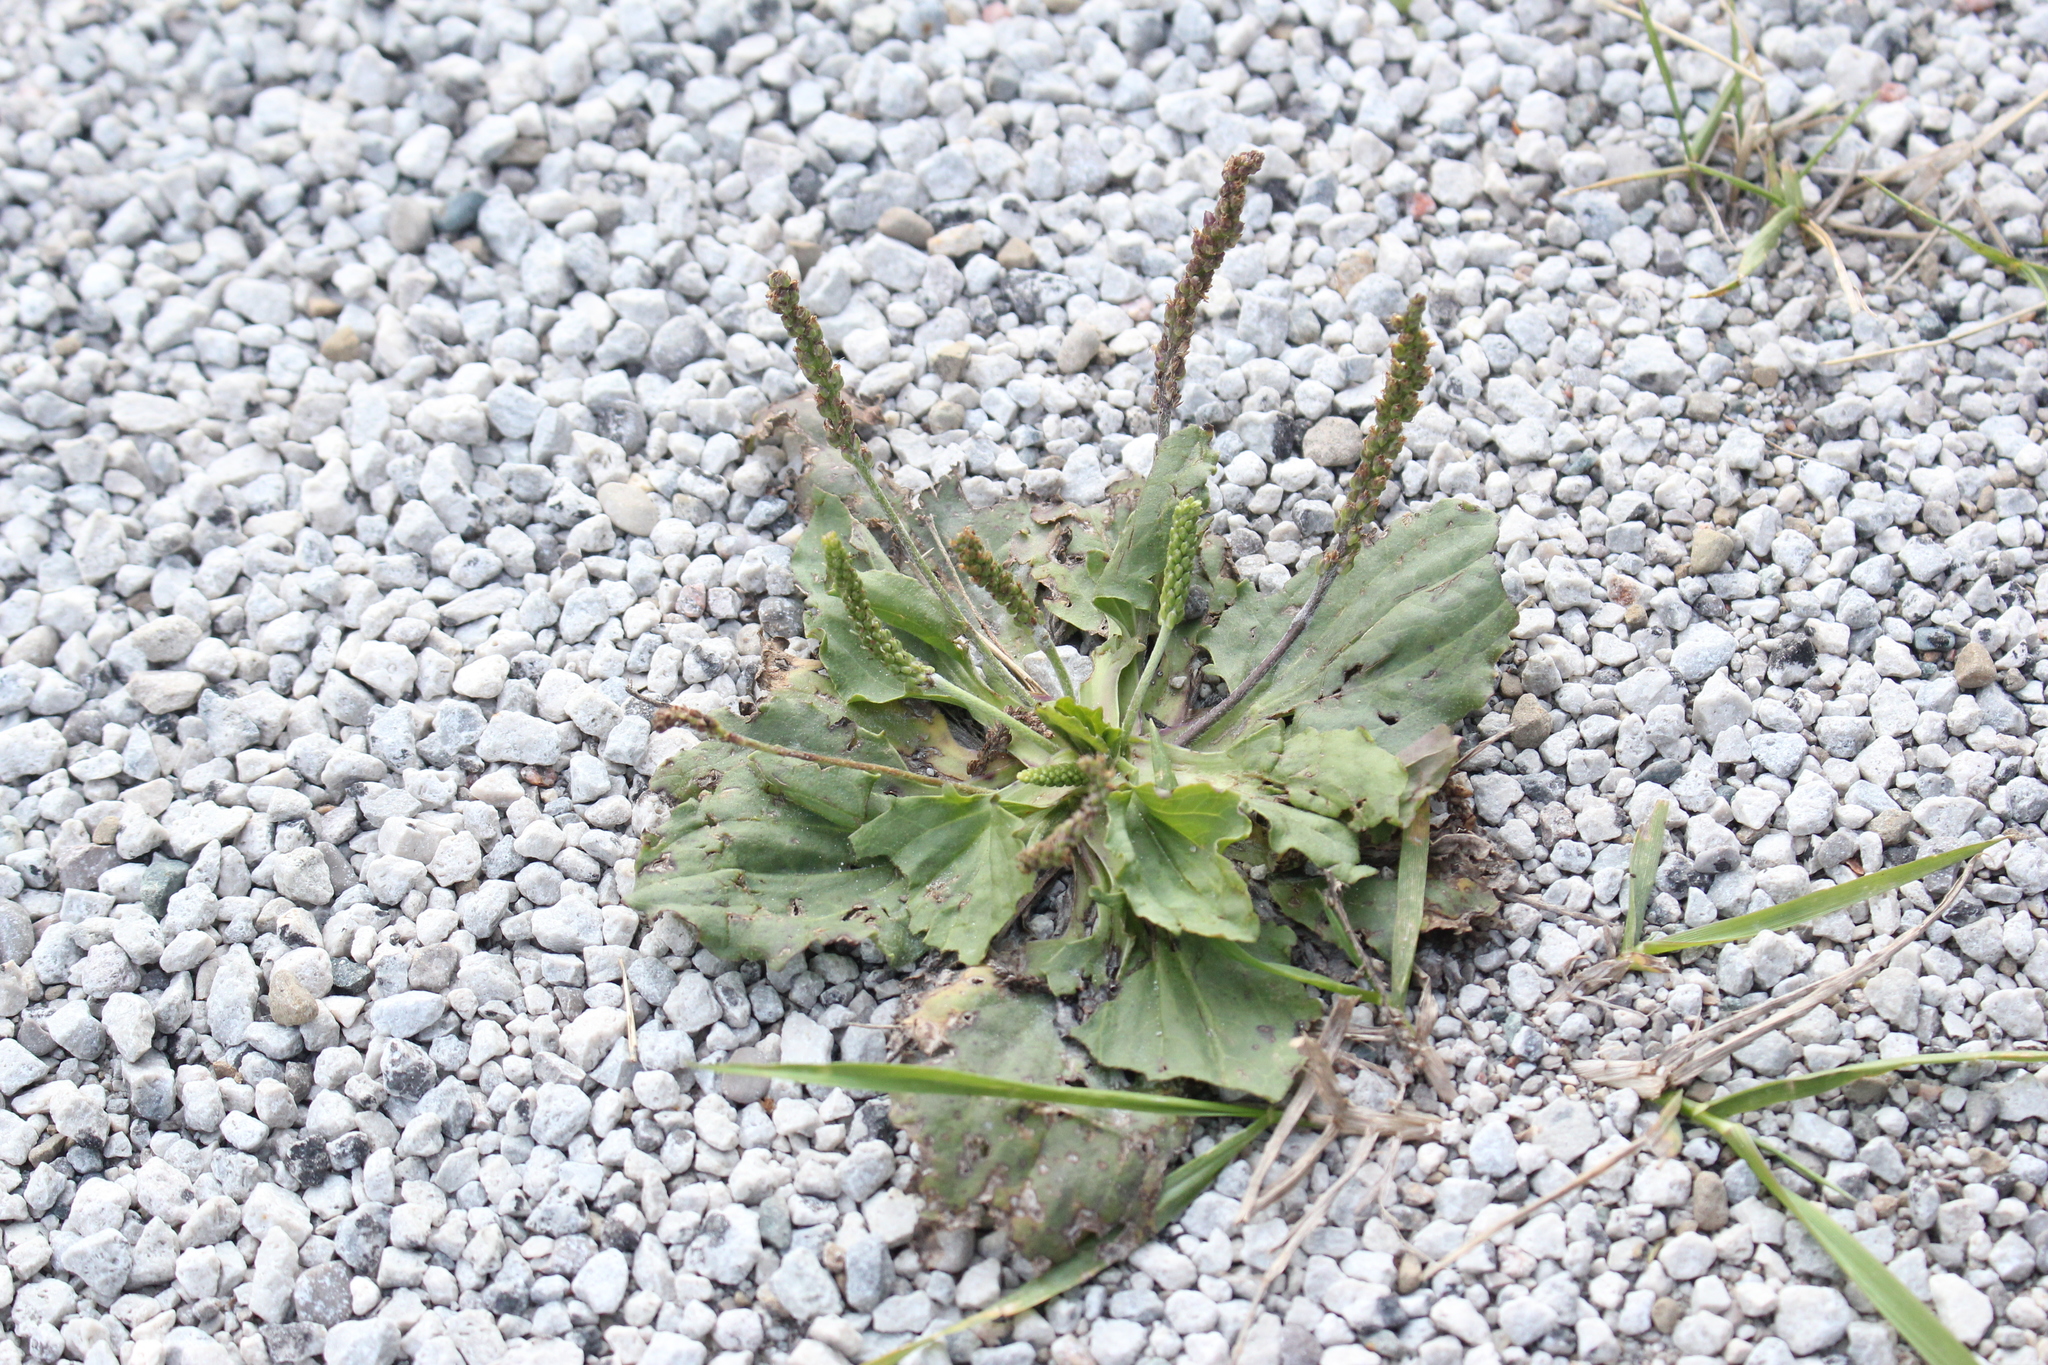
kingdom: Plantae
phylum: Tracheophyta
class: Magnoliopsida
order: Lamiales
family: Plantaginaceae
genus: Plantago
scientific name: Plantago major
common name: Common plantain
